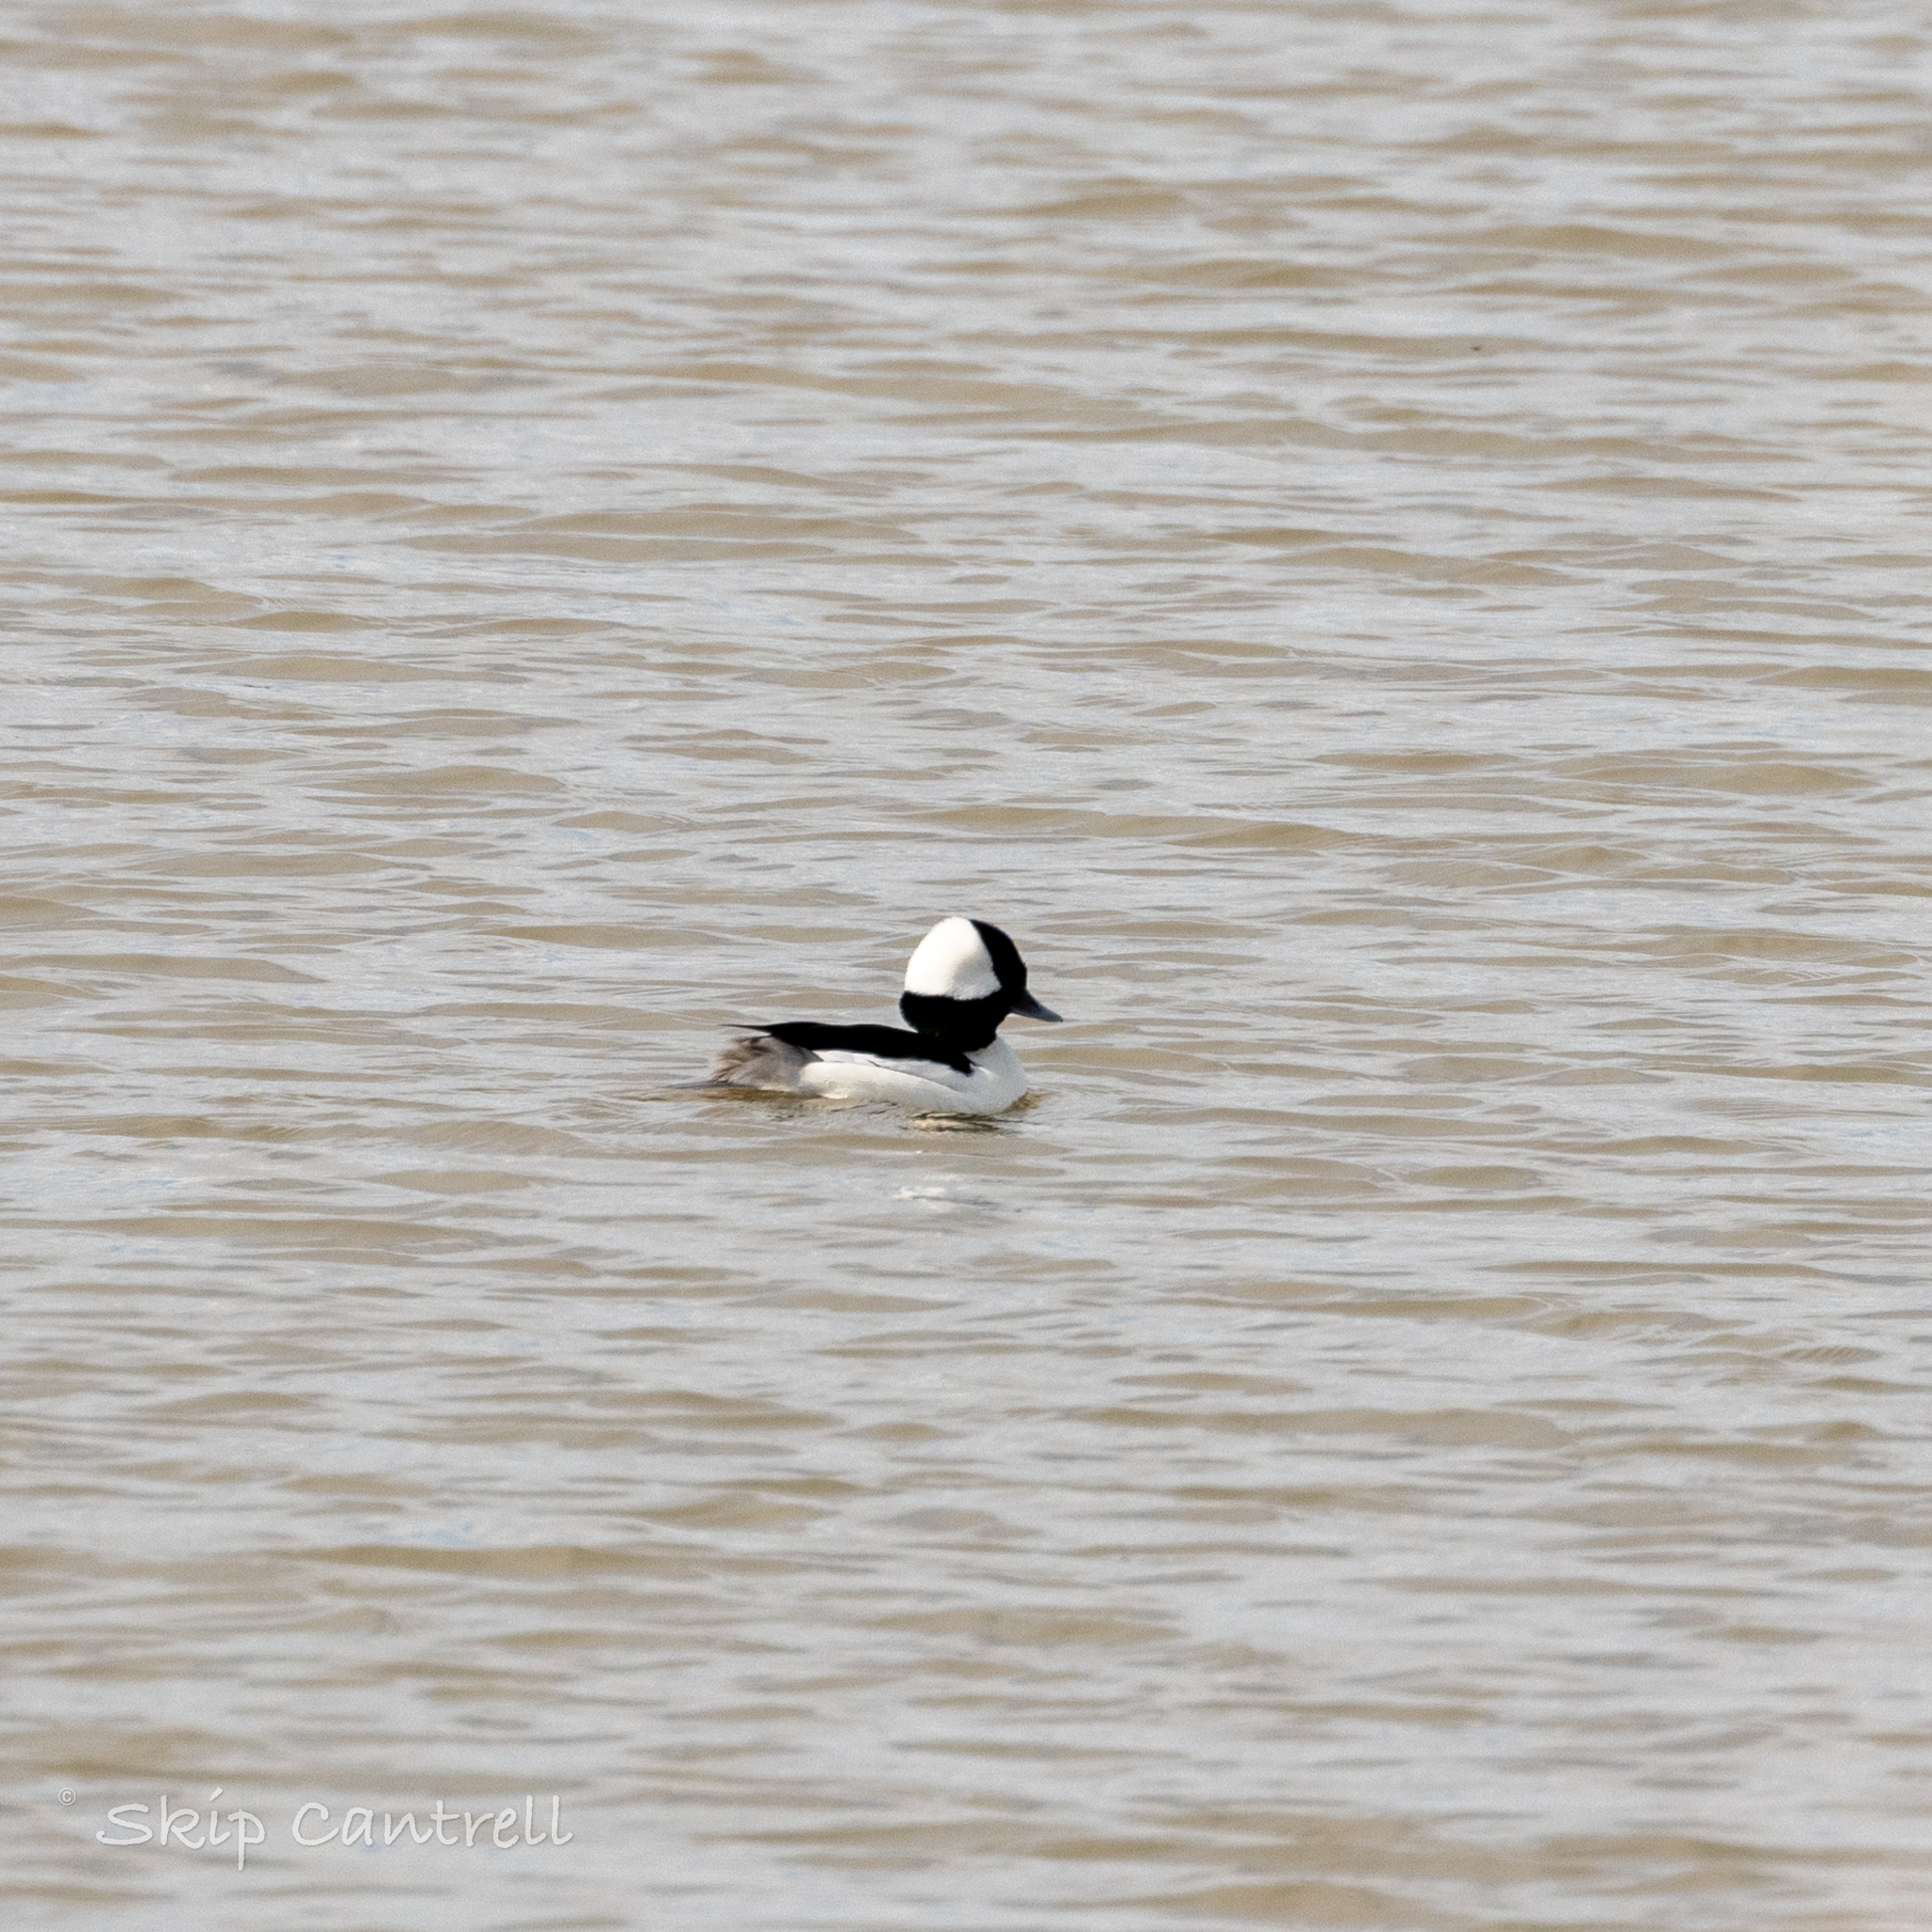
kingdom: Animalia
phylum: Chordata
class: Aves
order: Anseriformes
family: Anatidae
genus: Bucephala
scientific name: Bucephala albeola
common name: Bufflehead
